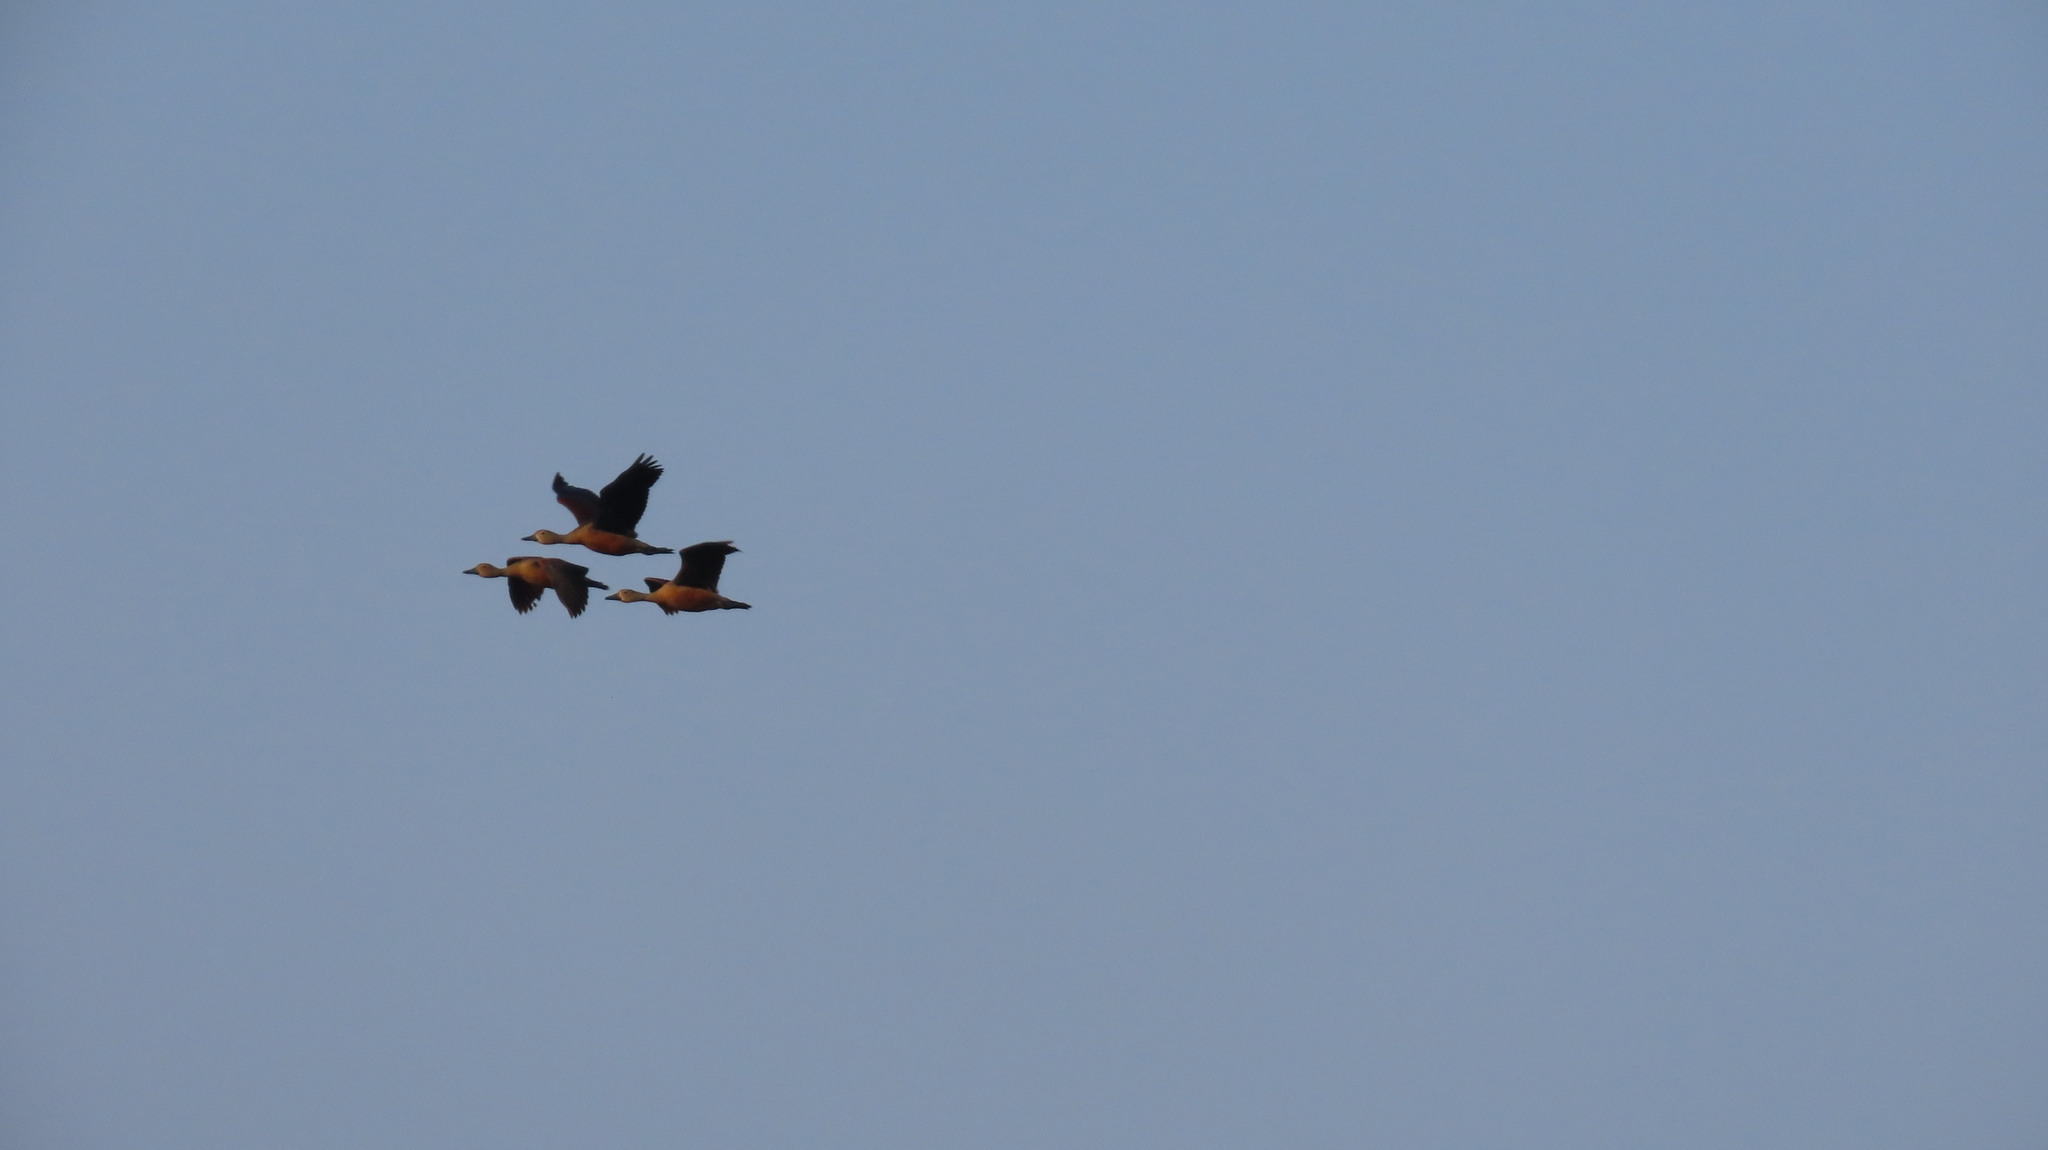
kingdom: Animalia
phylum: Chordata
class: Aves
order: Anseriformes
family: Anatidae
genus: Dendrocygna
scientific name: Dendrocygna javanica
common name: Lesser whistling-duck
